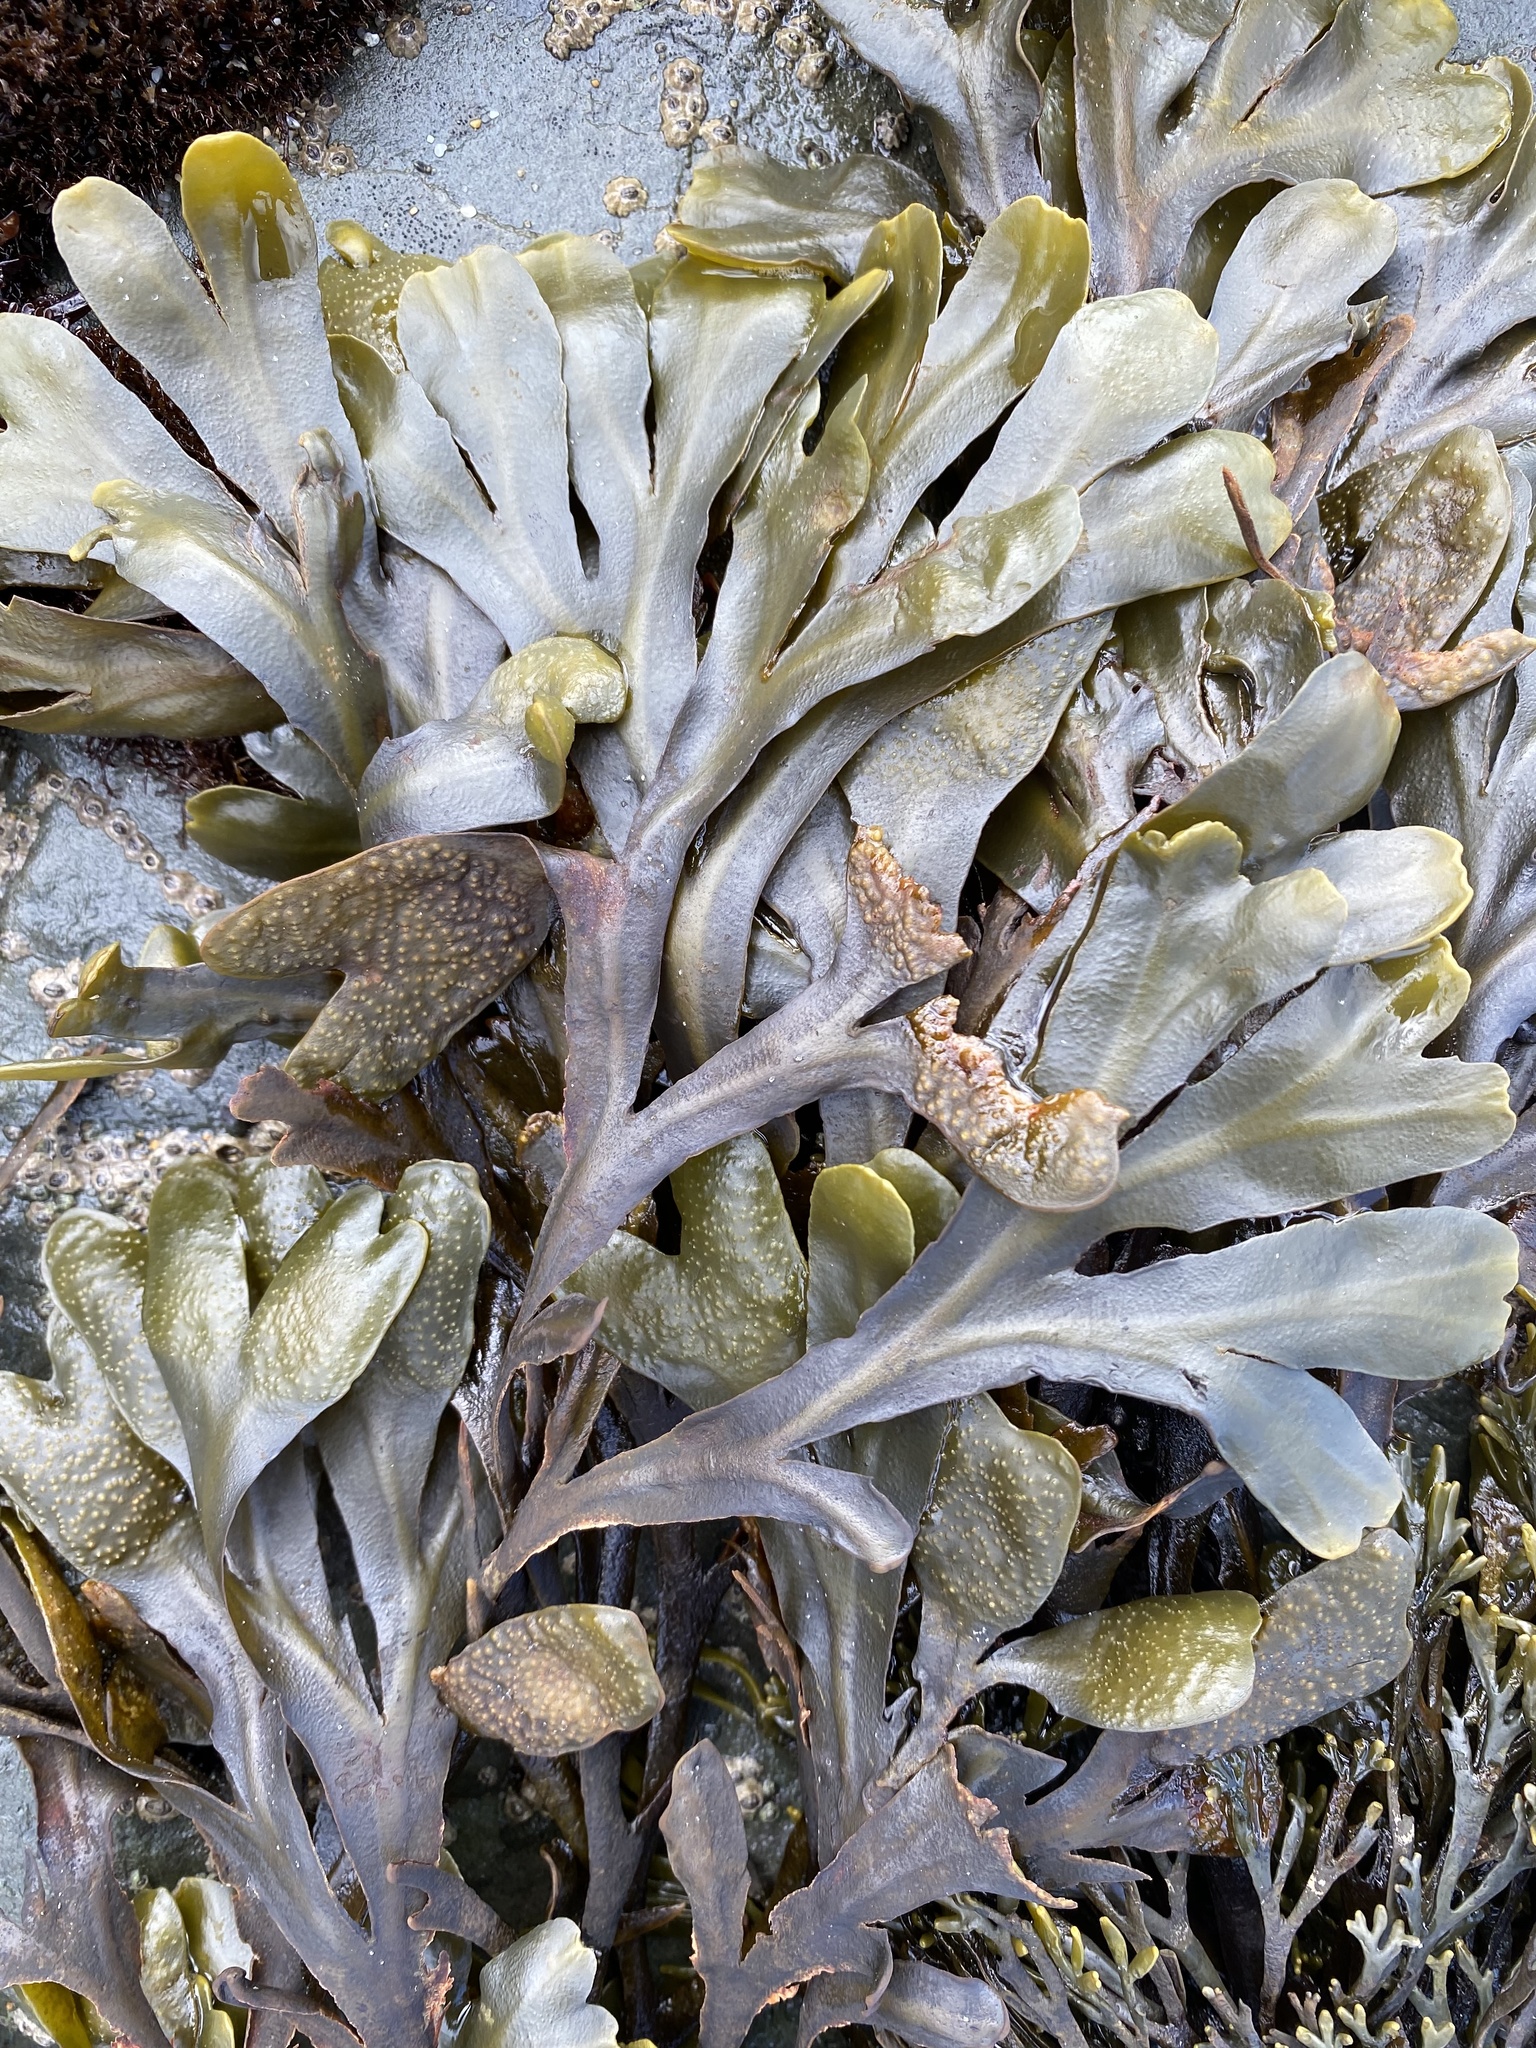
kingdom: Chromista
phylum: Ochrophyta
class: Phaeophyceae
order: Fucales
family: Fucaceae
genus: Fucus
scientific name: Fucus distichus
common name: Rockweed
